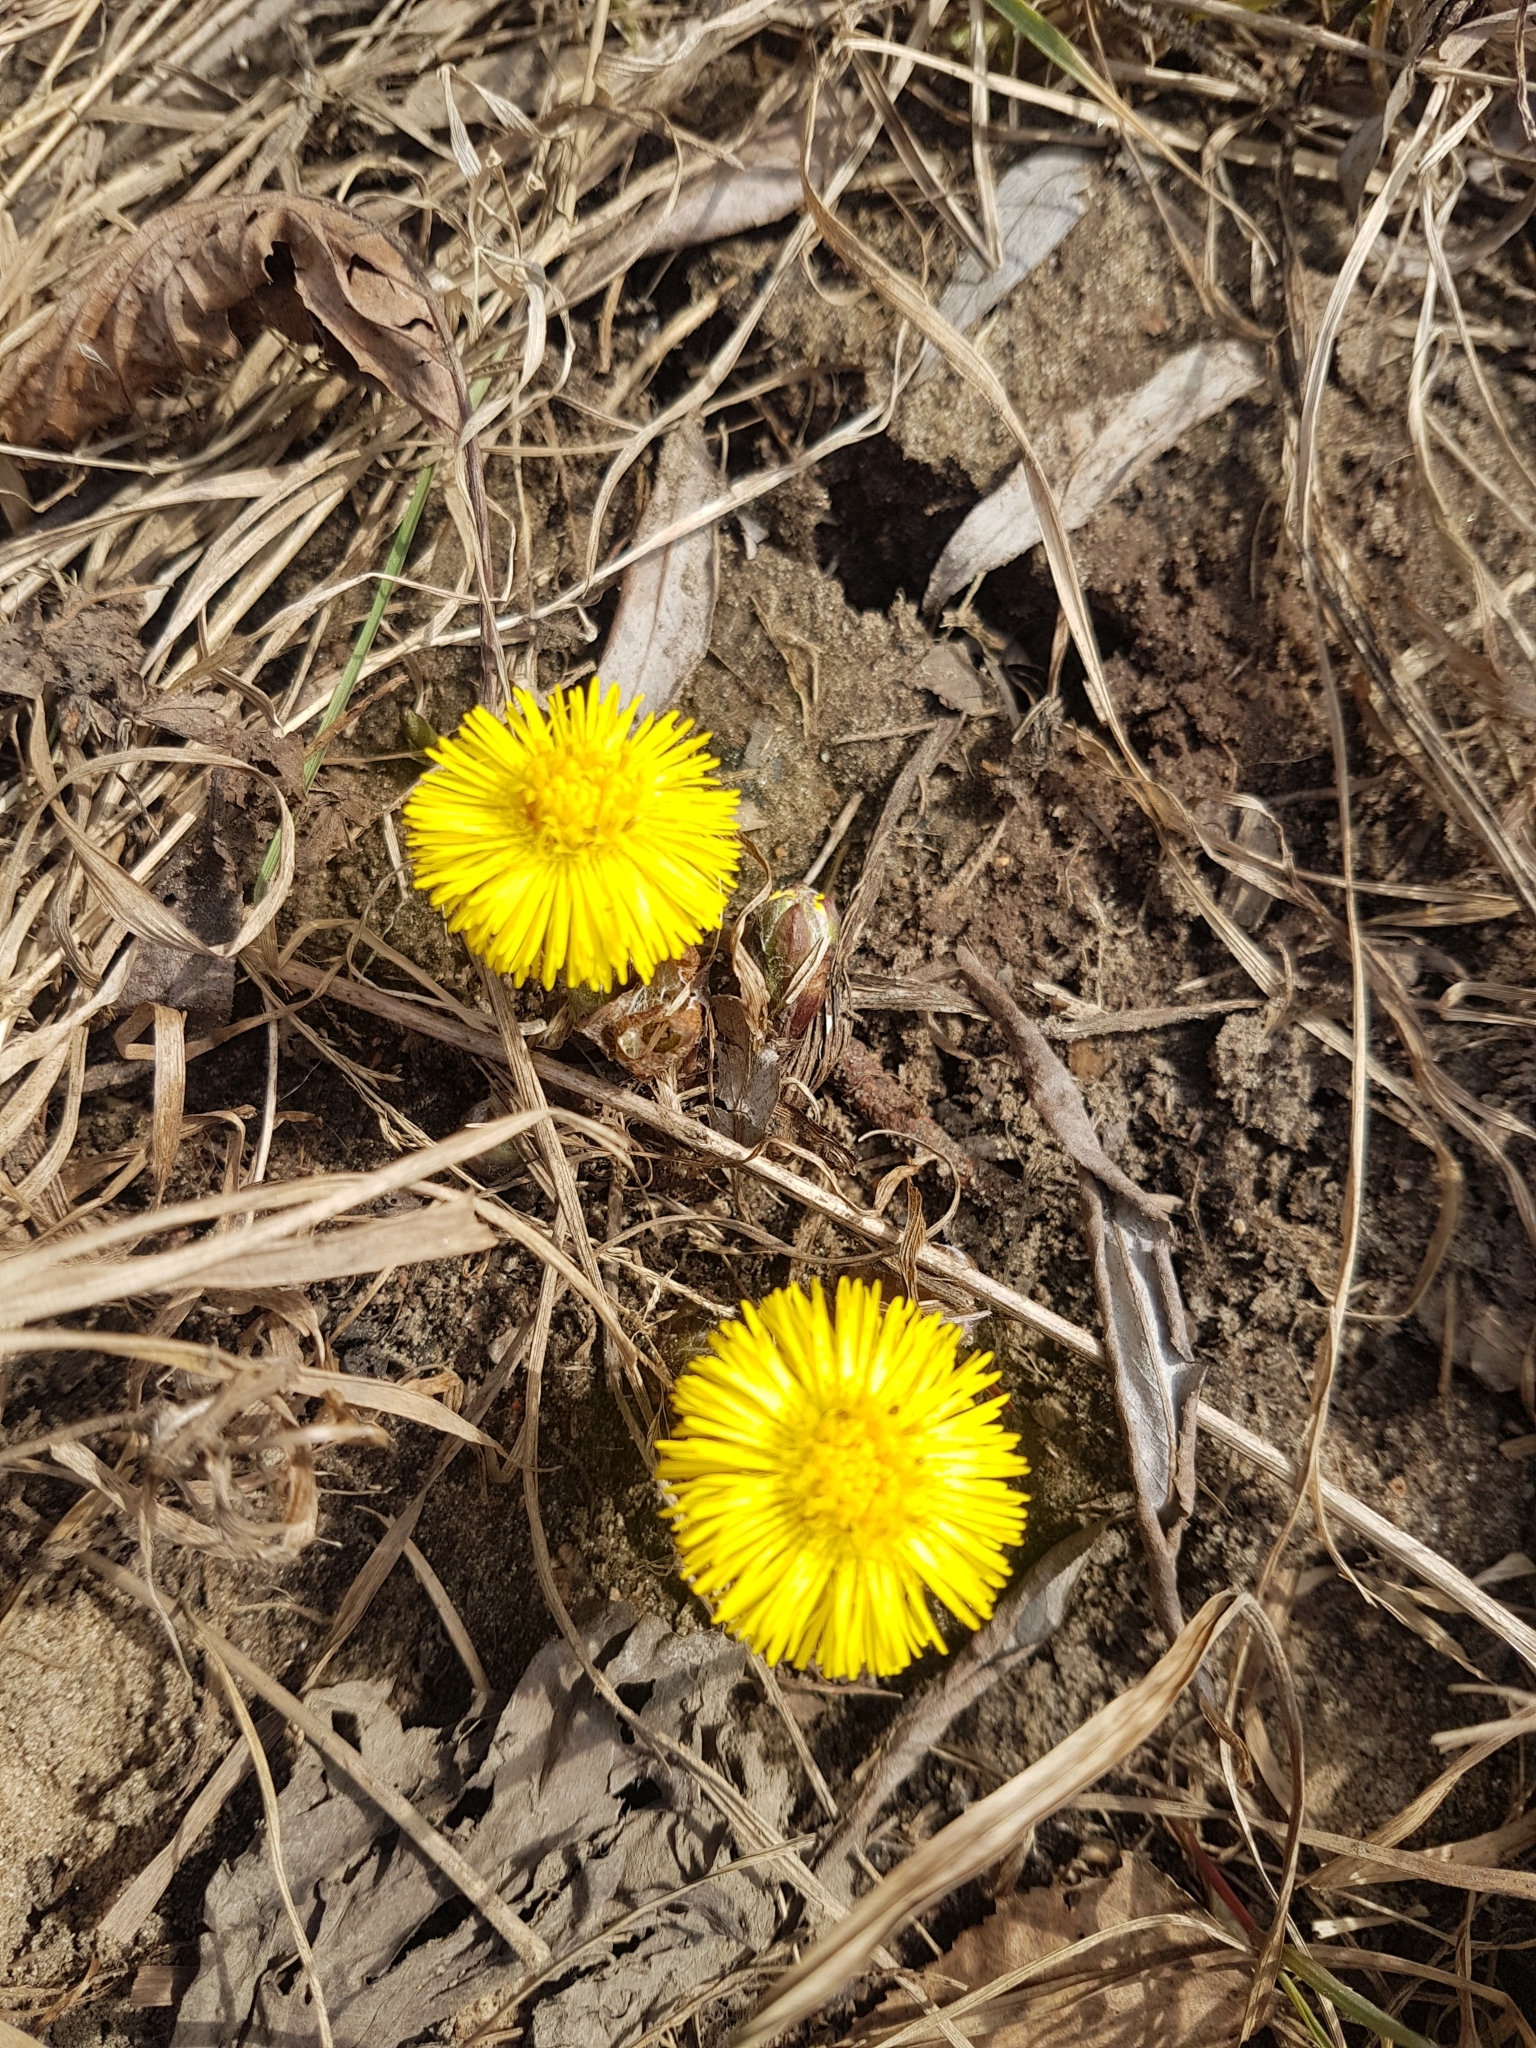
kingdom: Plantae
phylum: Tracheophyta
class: Magnoliopsida
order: Asterales
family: Asteraceae
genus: Tussilago
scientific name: Tussilago farfara
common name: Coltsfoot
